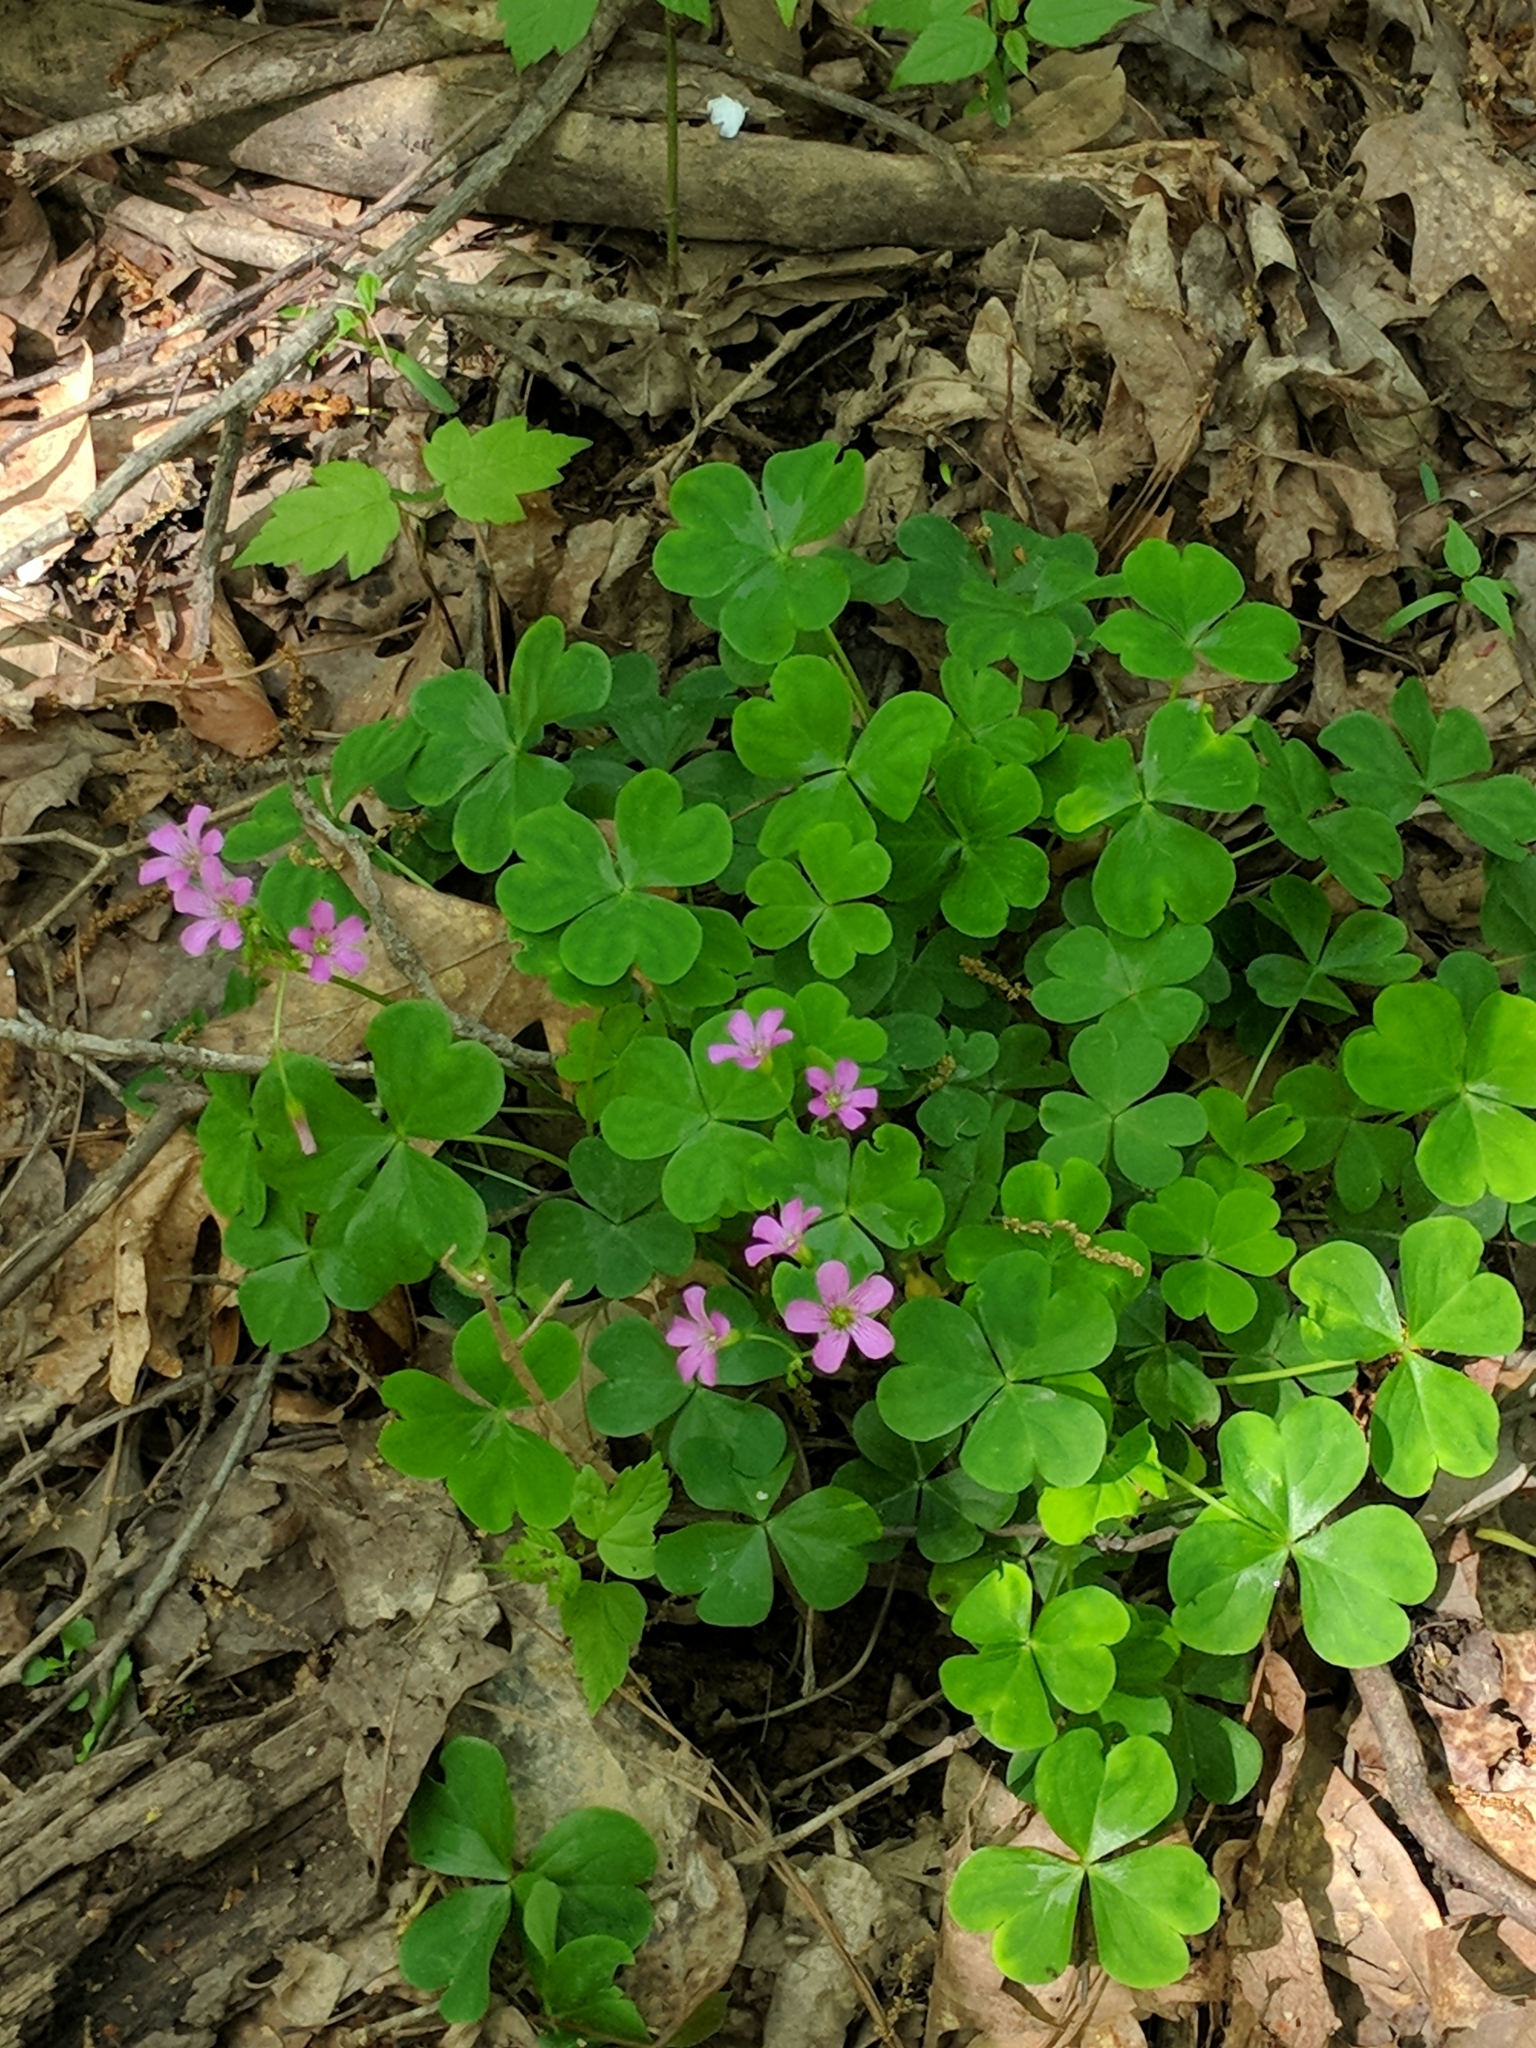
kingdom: Plantae
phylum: Tracheophyta
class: Magnoliopsida
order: Oxalidales
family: Oxalidaceae
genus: Oxalis
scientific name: Oxalis debilis
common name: Large-flowered pink-sorrel
